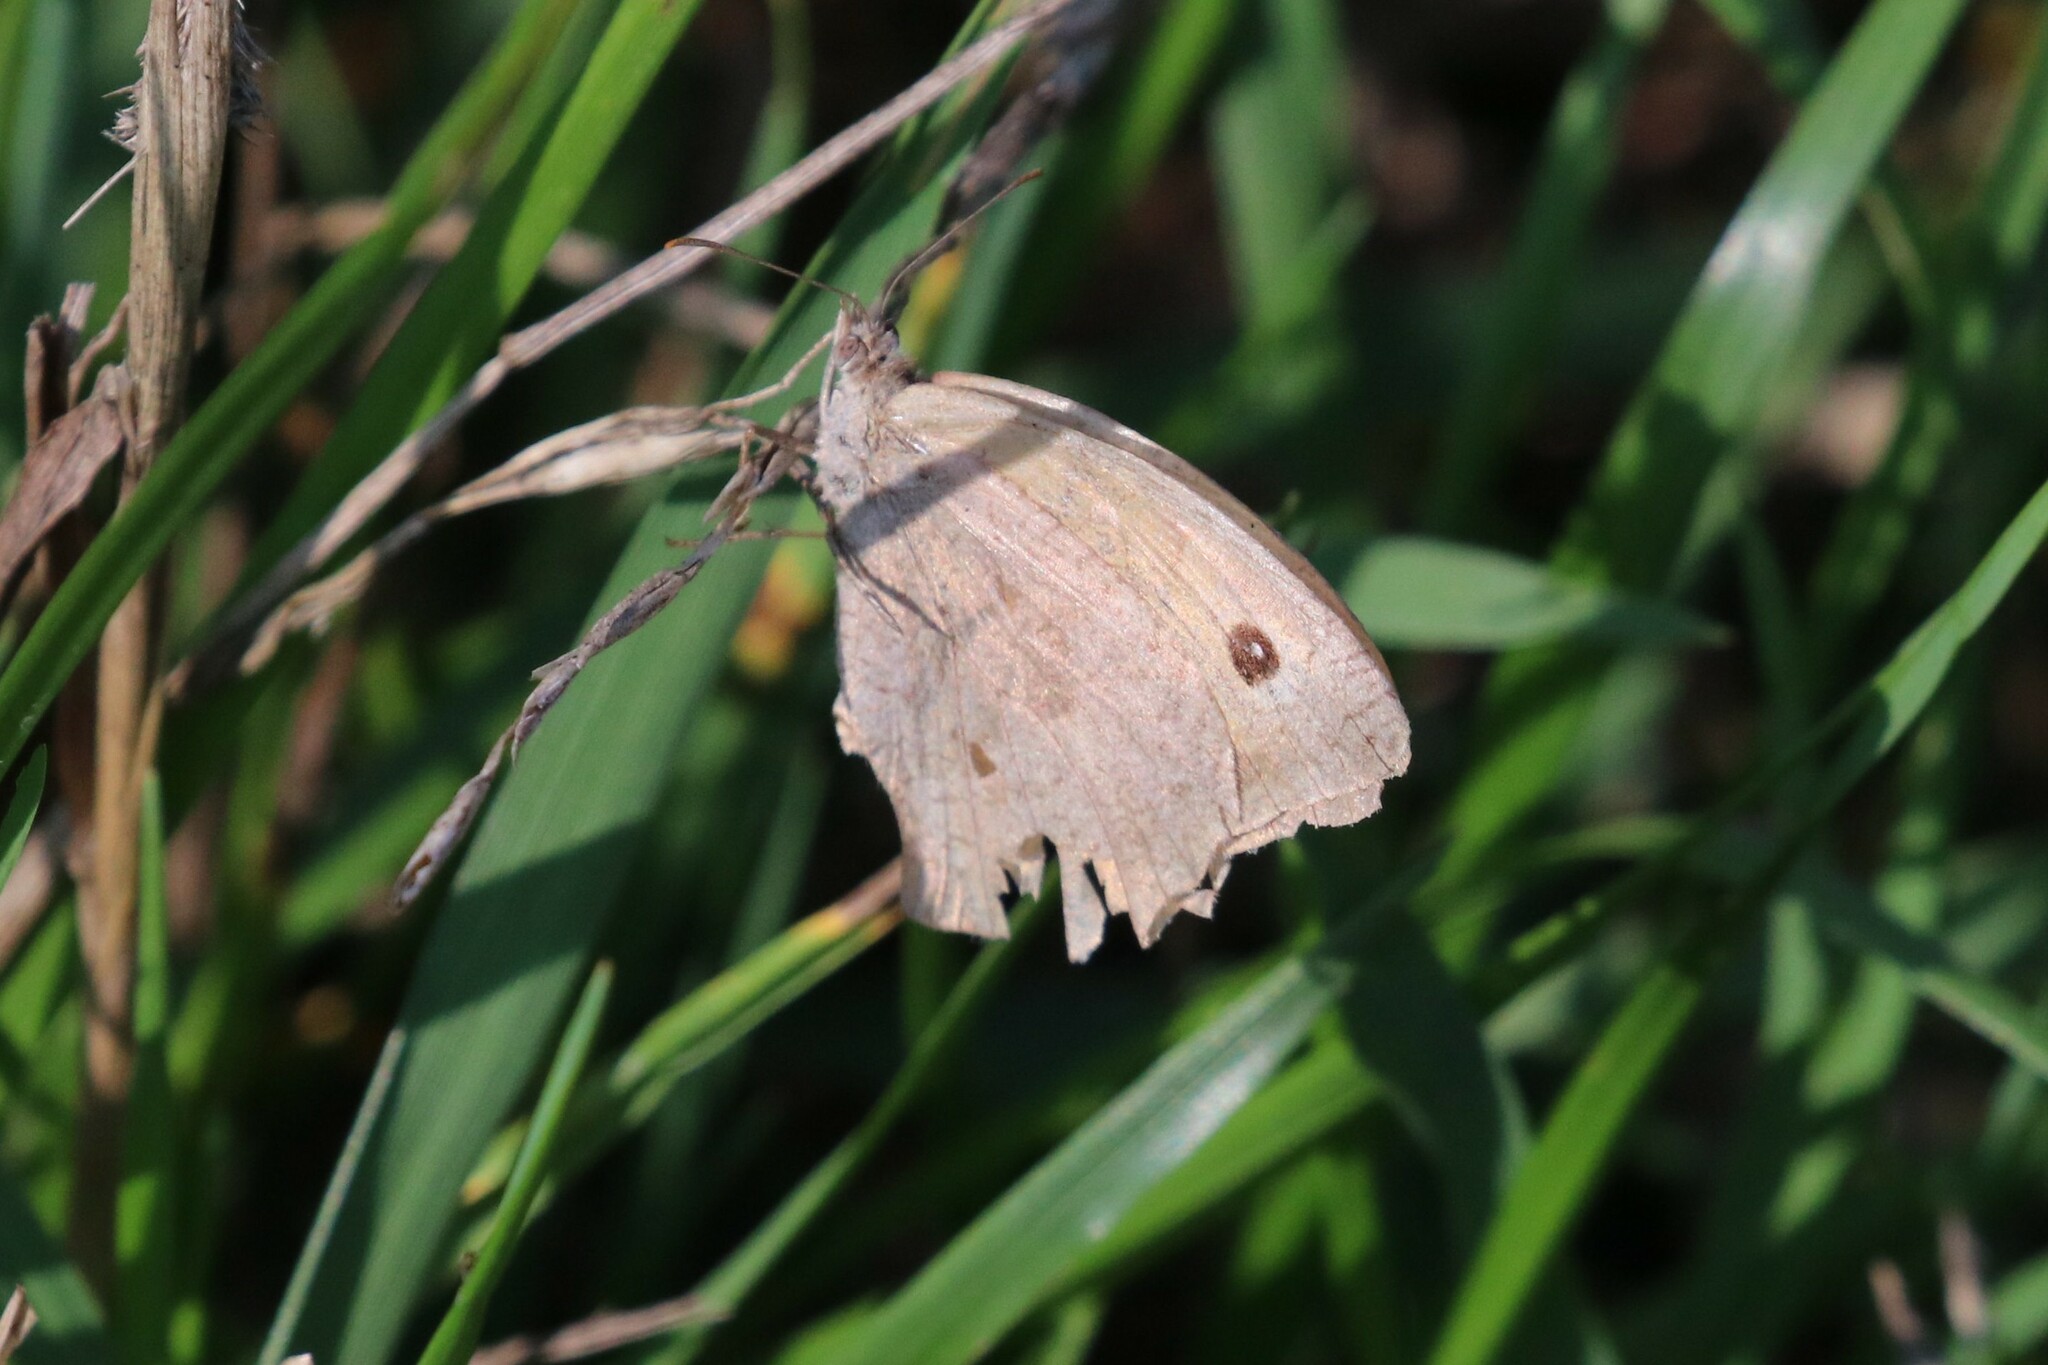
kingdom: Animalia
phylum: Arthropoda
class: Insecta
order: Lepidoptera
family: Nymphalidae
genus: Maniola
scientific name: Maniola jurtina
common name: Meadow brown
